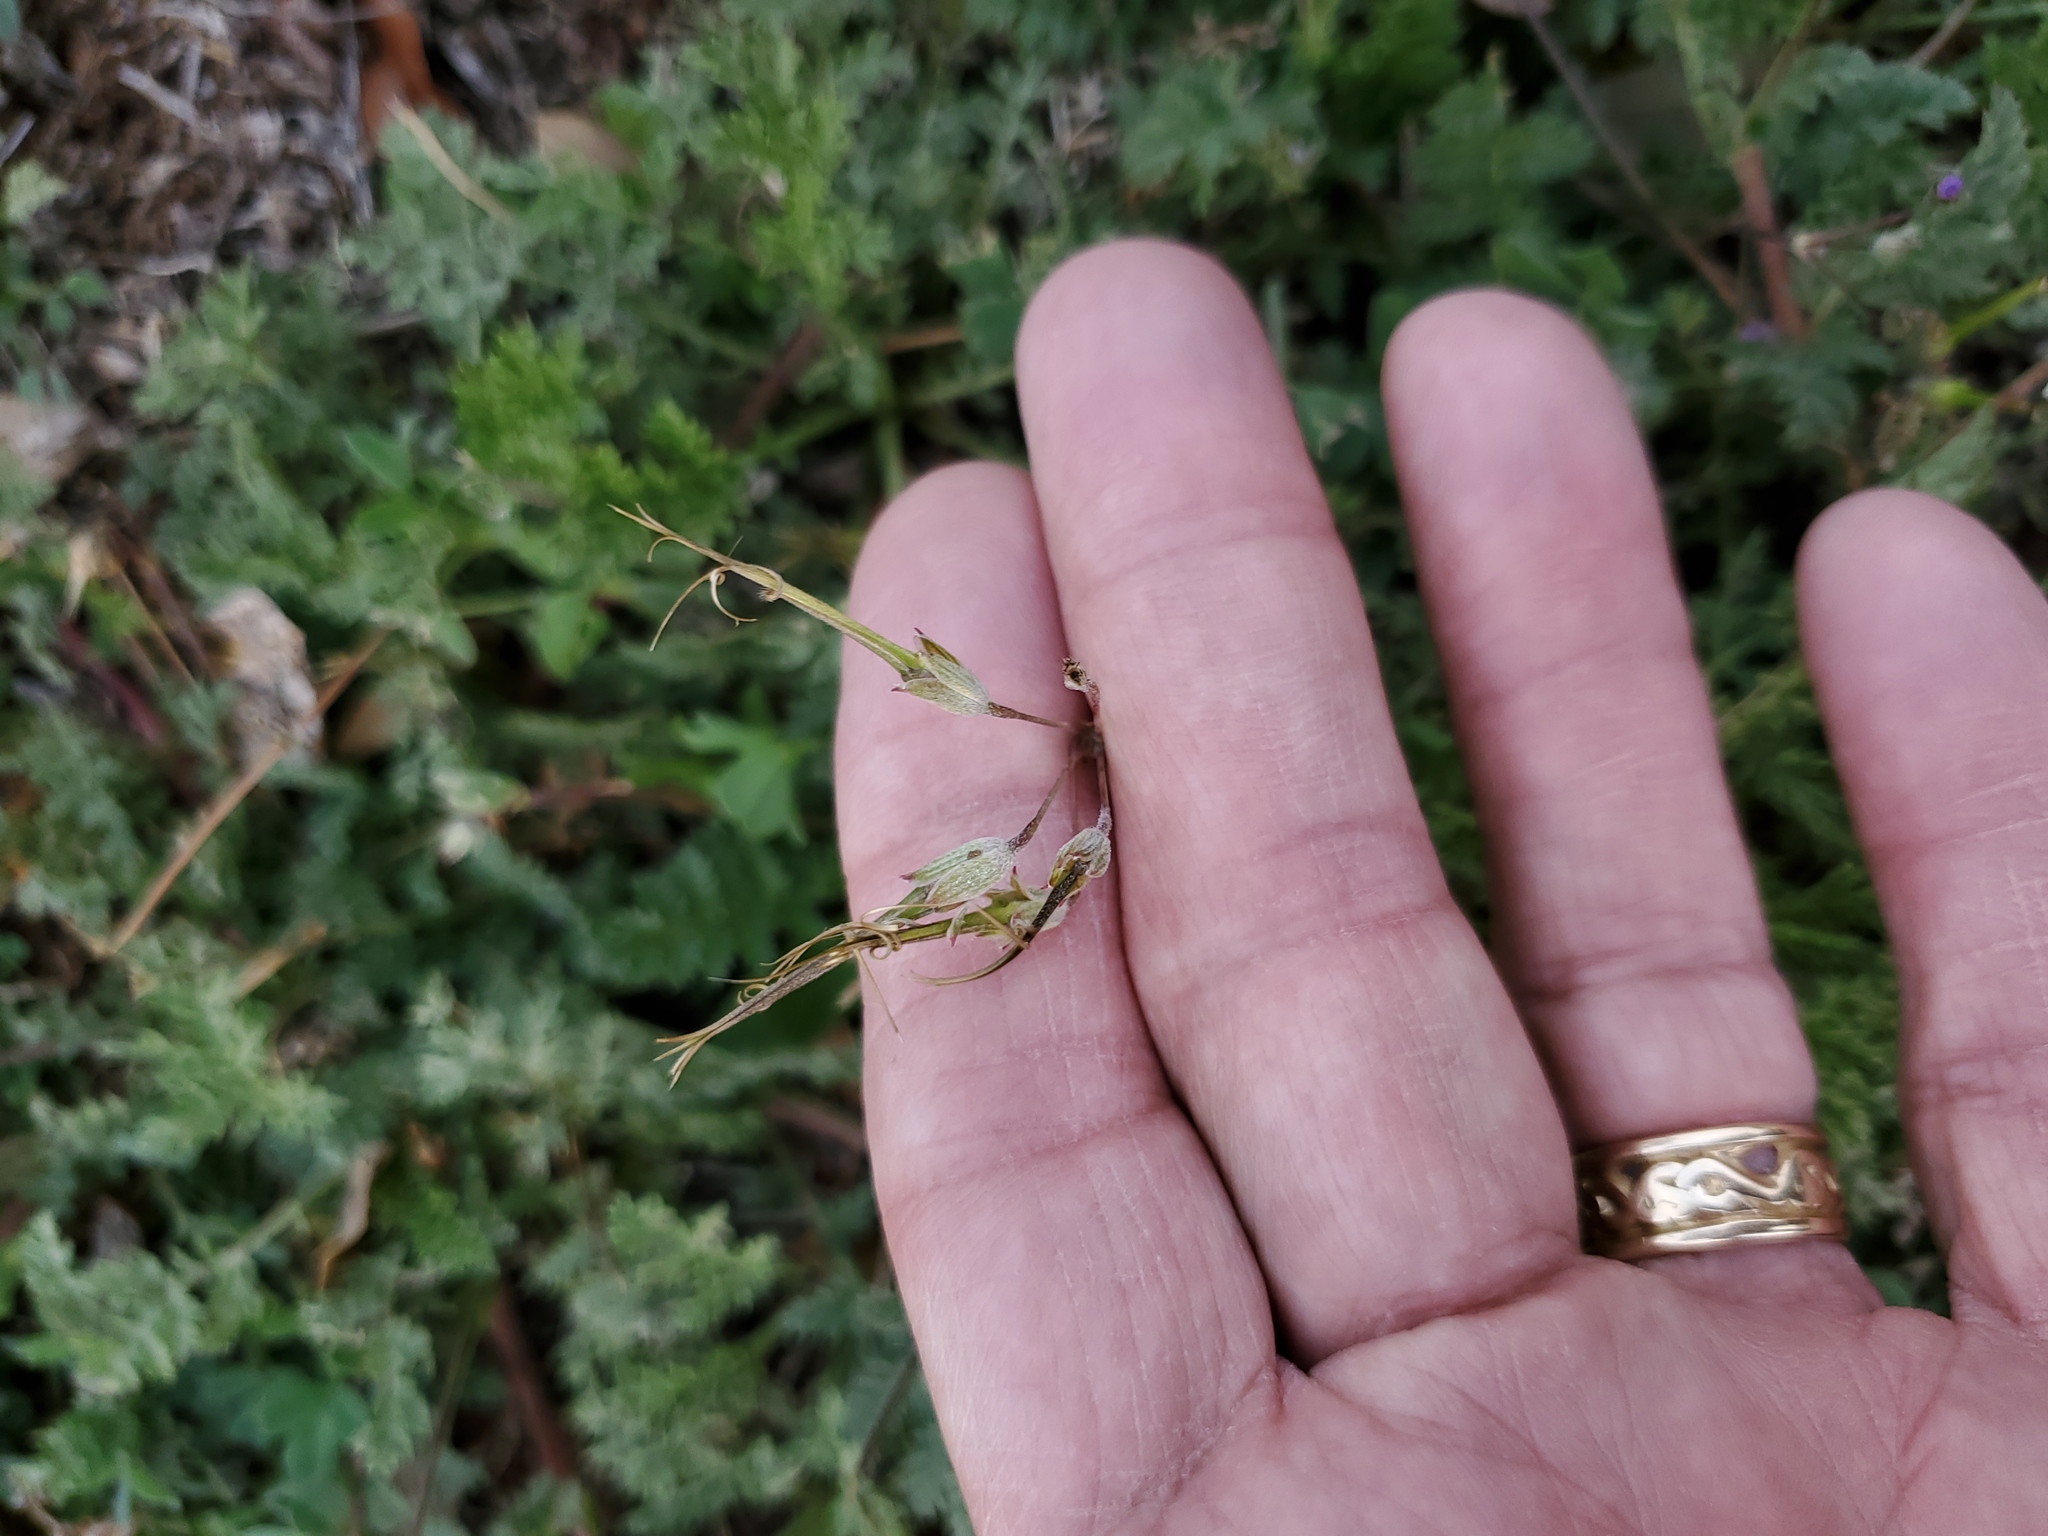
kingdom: Plantae
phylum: Tracheophyta
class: Magnoliopsida
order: Geraniales
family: Geraniaceae
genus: Erodium
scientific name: Erodium cicutarium
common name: Common stork's-bill
